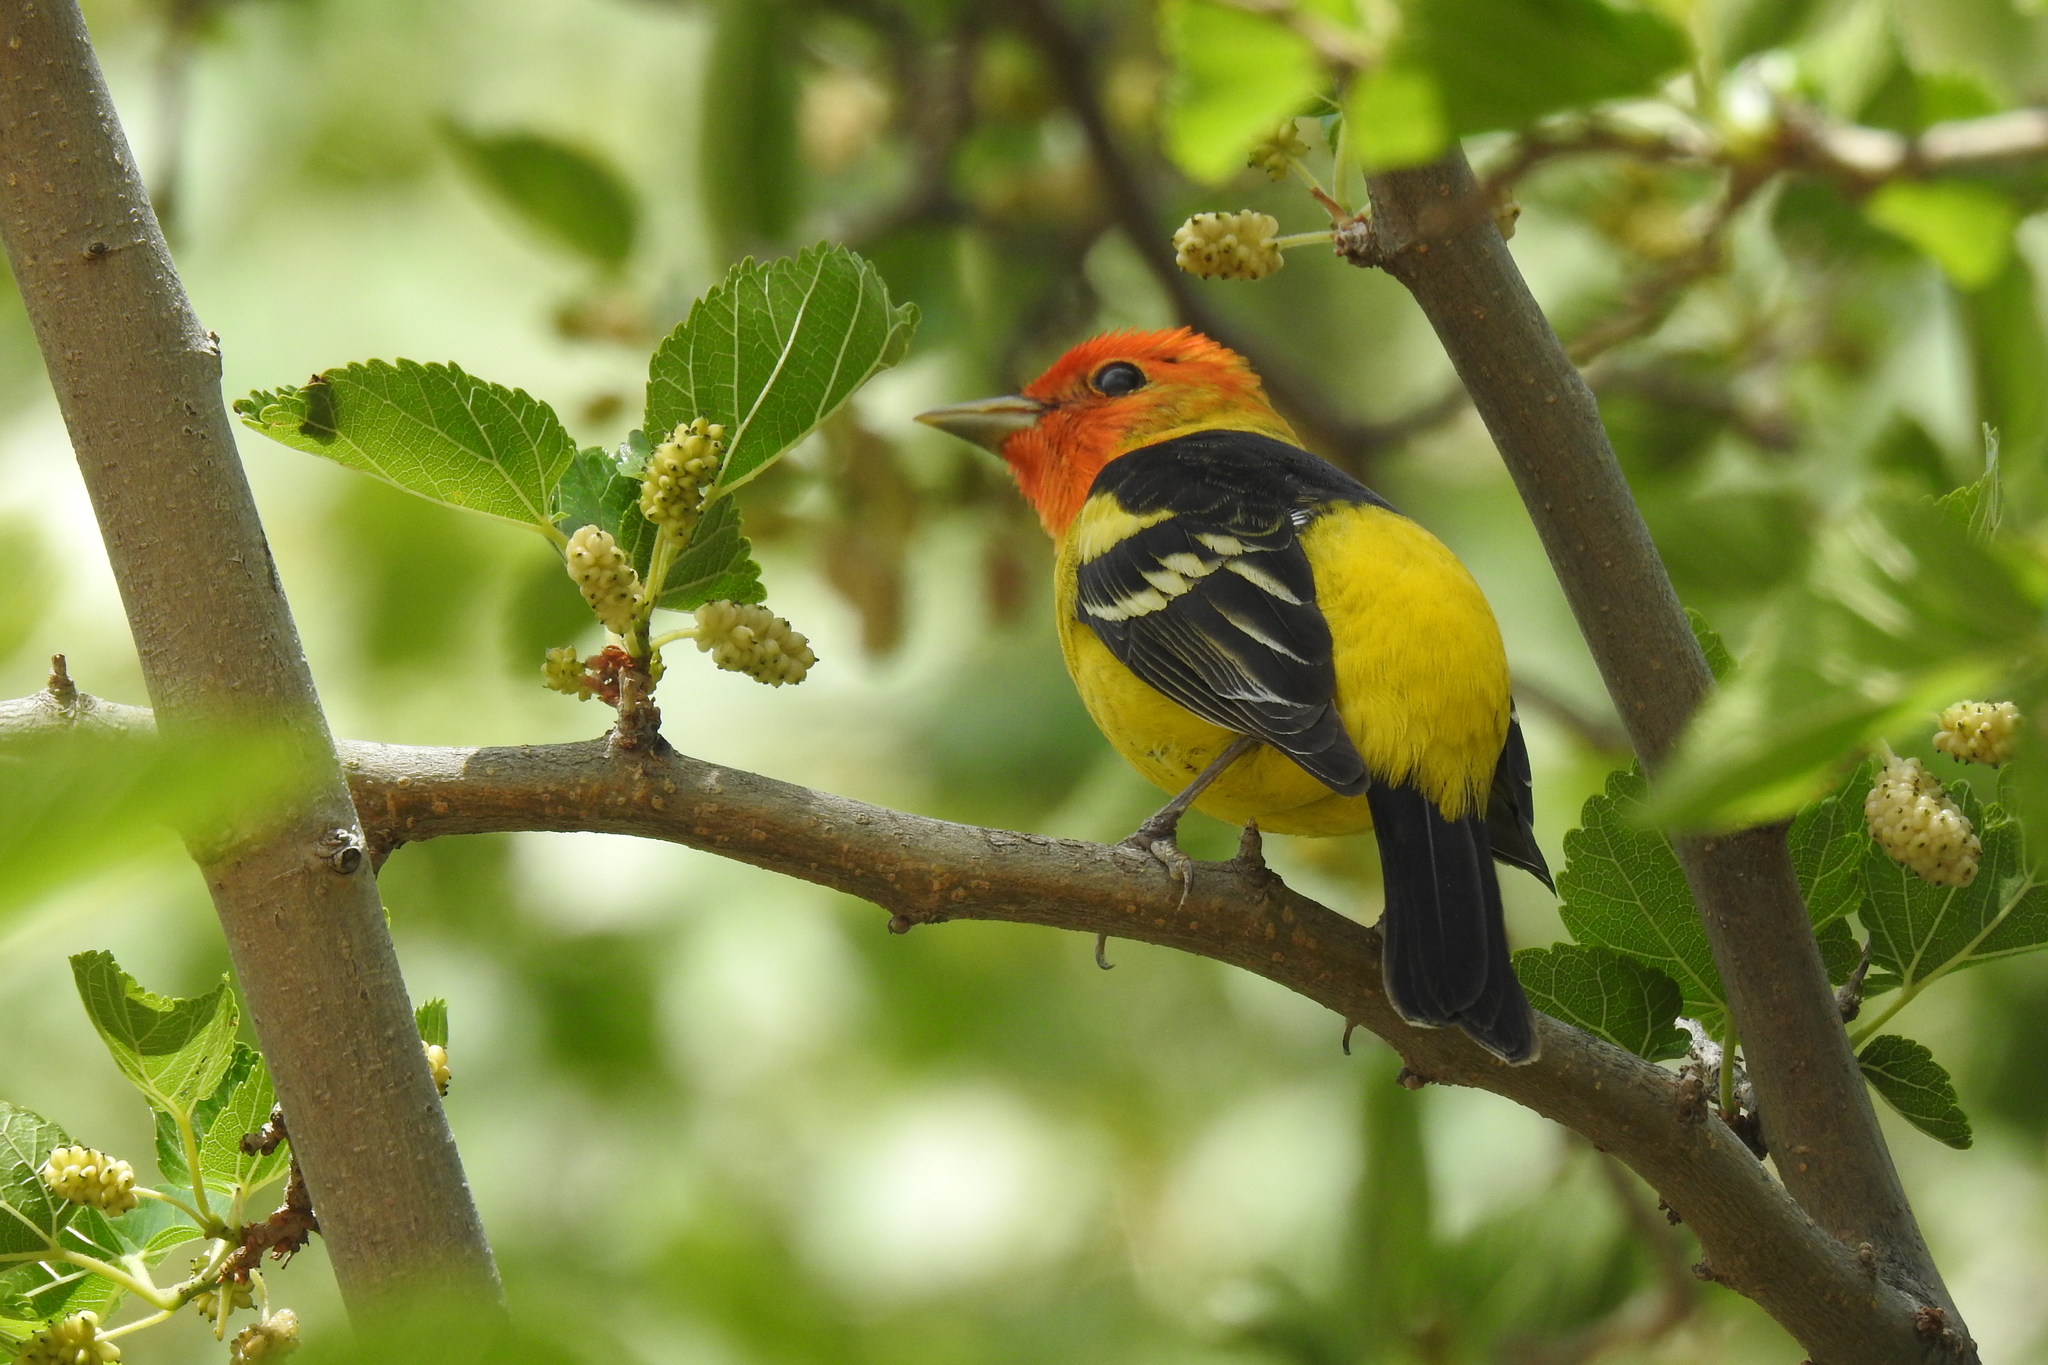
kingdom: Animalia
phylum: Chordata
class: Aves
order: Passeriformes
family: Cardinalidae
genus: Piranga
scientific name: Piranga ludoviciana
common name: Western tanager
